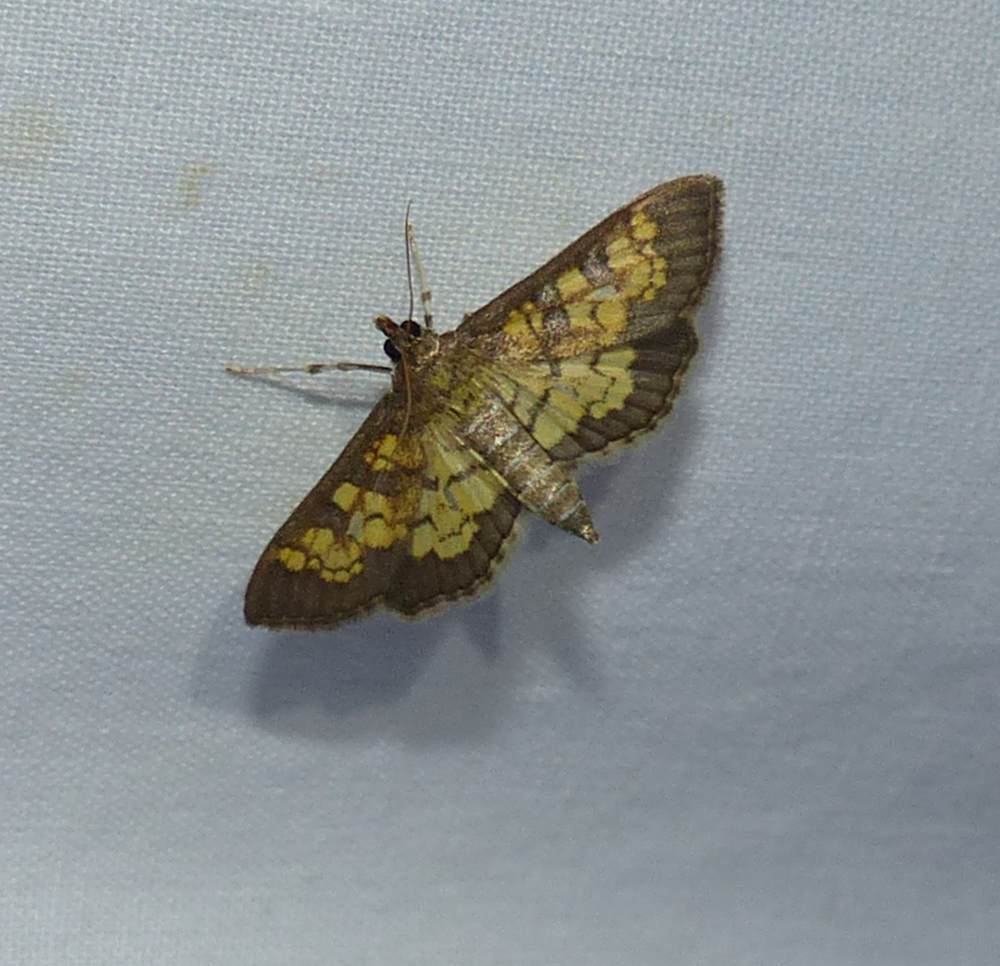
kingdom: Animalia
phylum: Arthropoda
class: Insecta
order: Lepidoptera
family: Crambidae
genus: Epipagis
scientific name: Epipagis adipaloides
